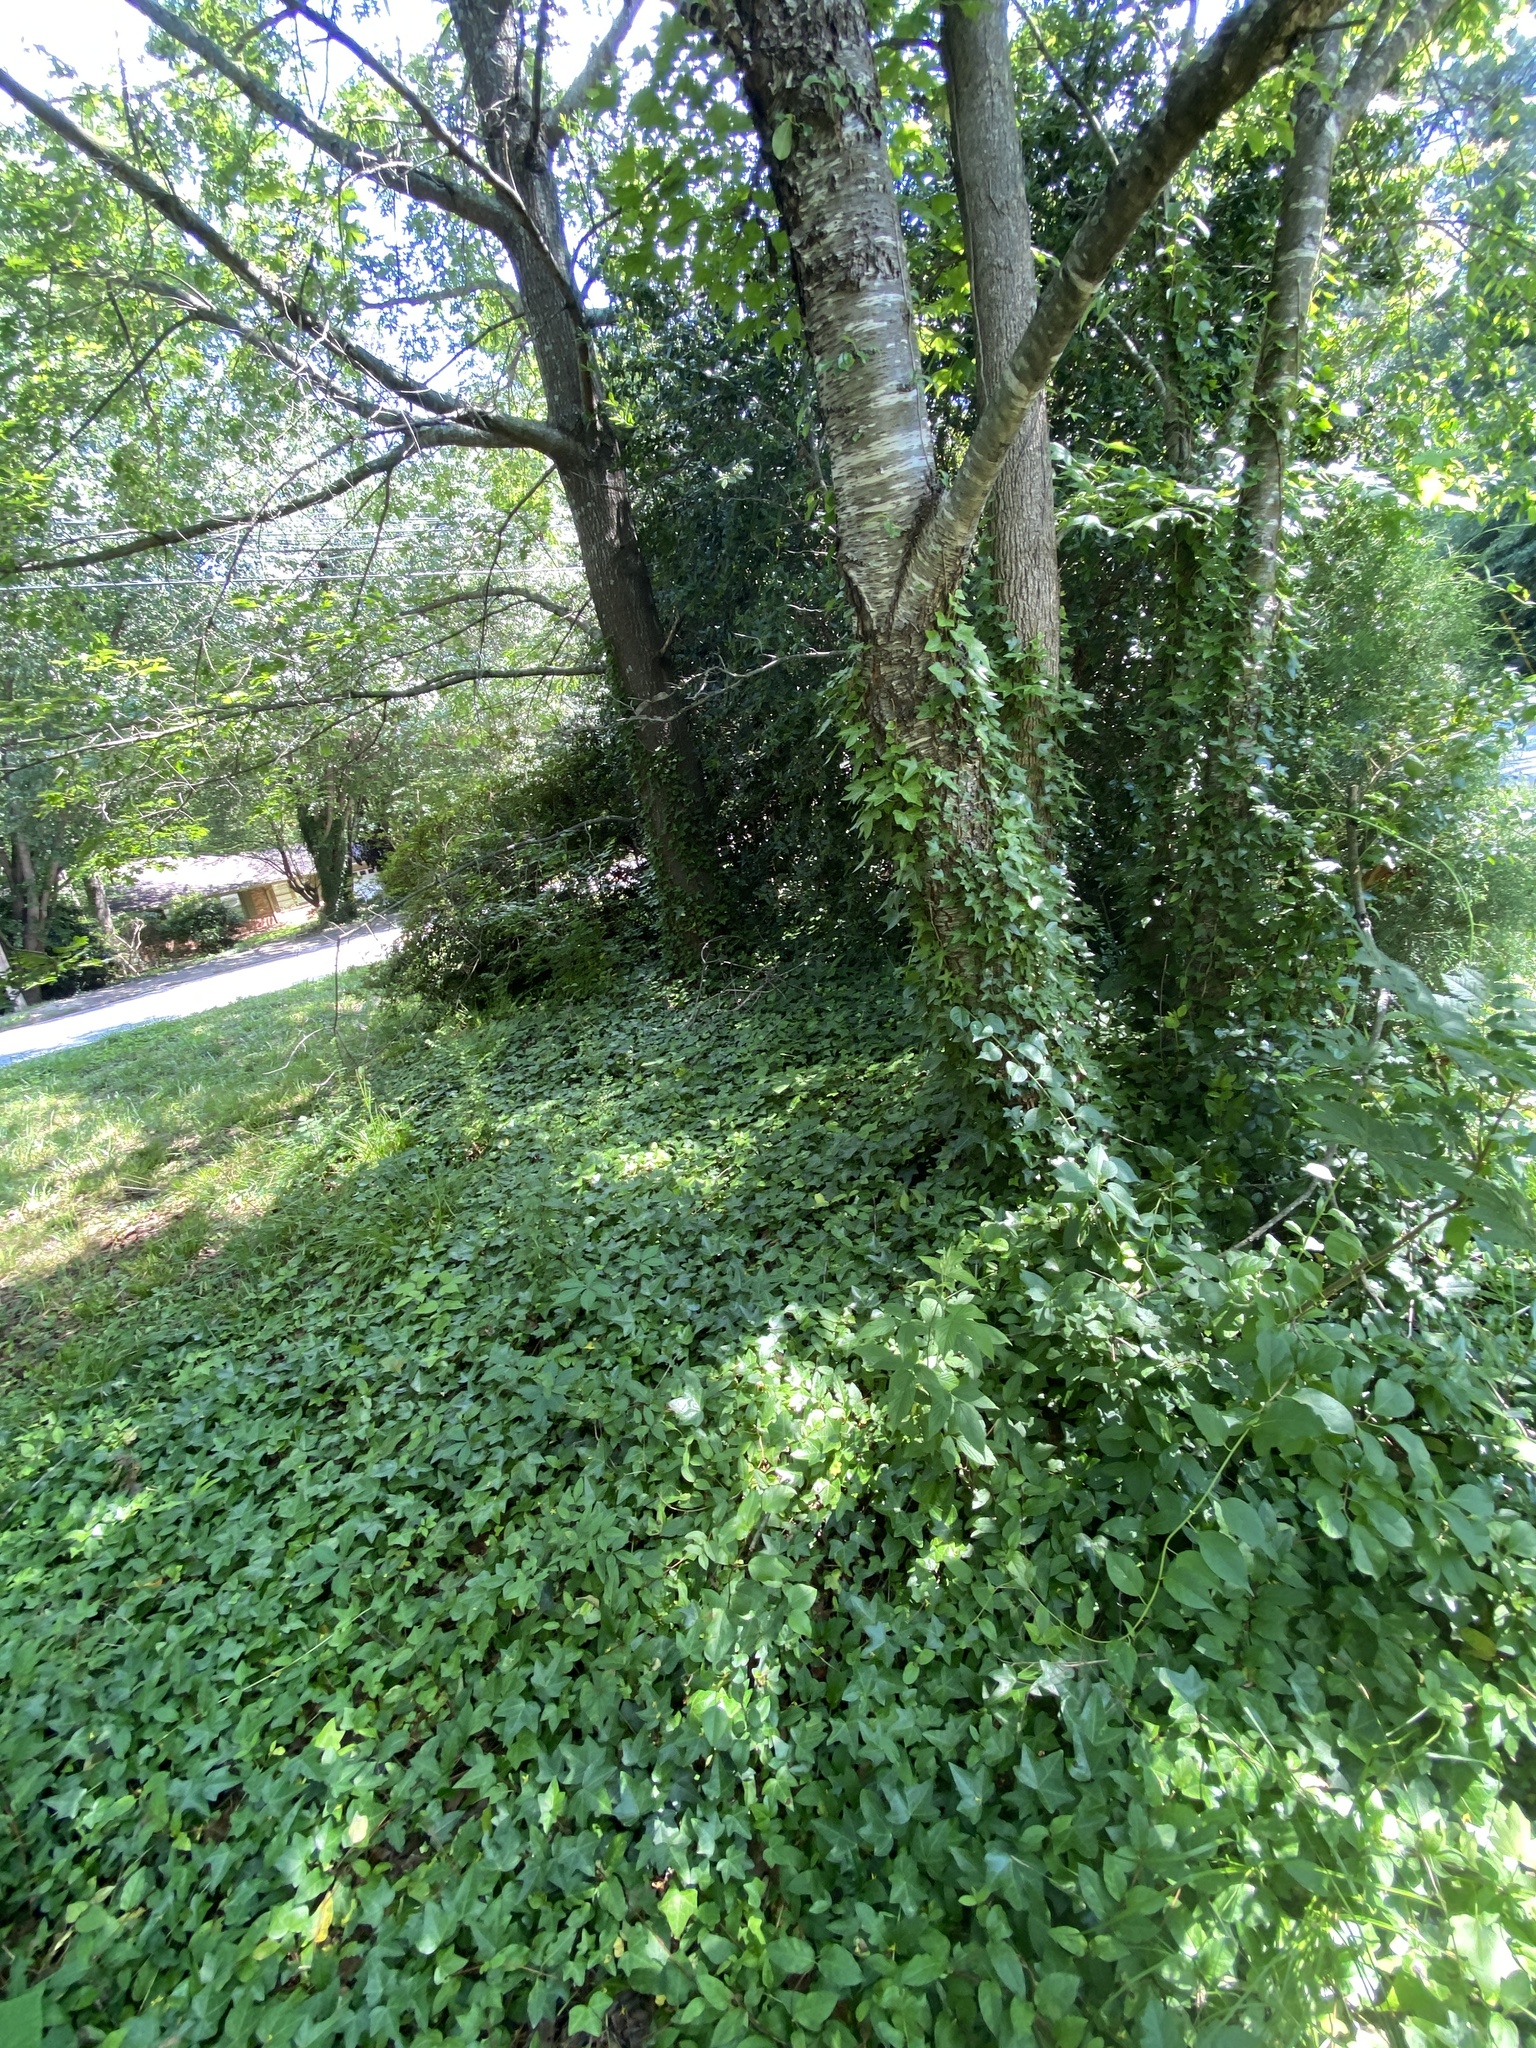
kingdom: Plantae
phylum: Tracheophyta
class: Magnoliopsida
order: Apiales
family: Araliaceae
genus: Hedera
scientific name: Hedera helix
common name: Ivy
